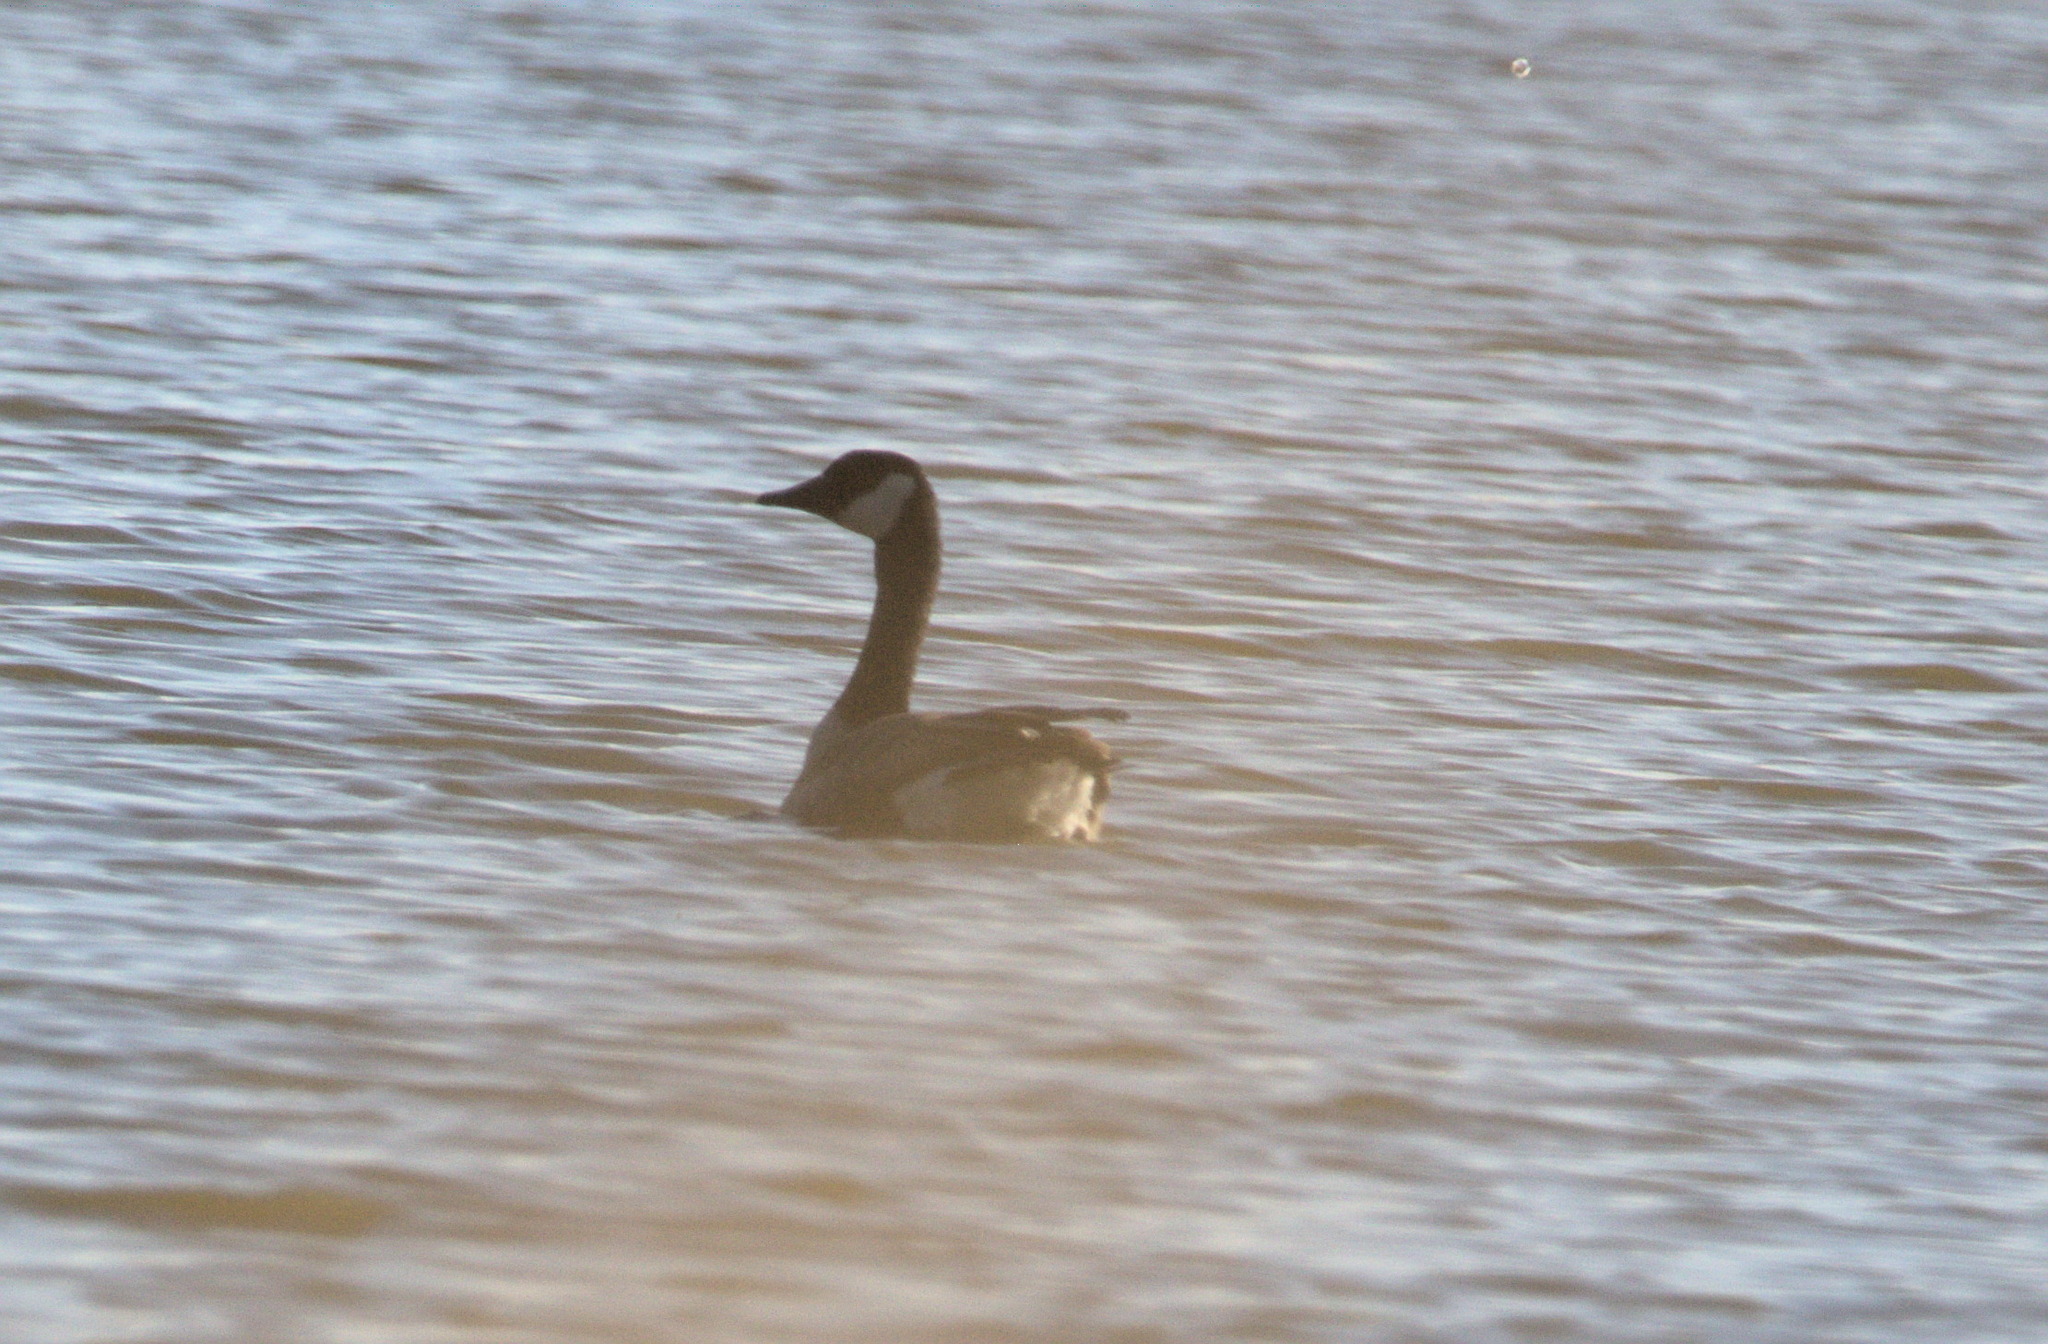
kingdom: Animalia
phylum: Chordata
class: Aves
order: Anseriformes
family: Anatidae
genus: Branta
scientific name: Branta canadensis
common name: Canada goose
